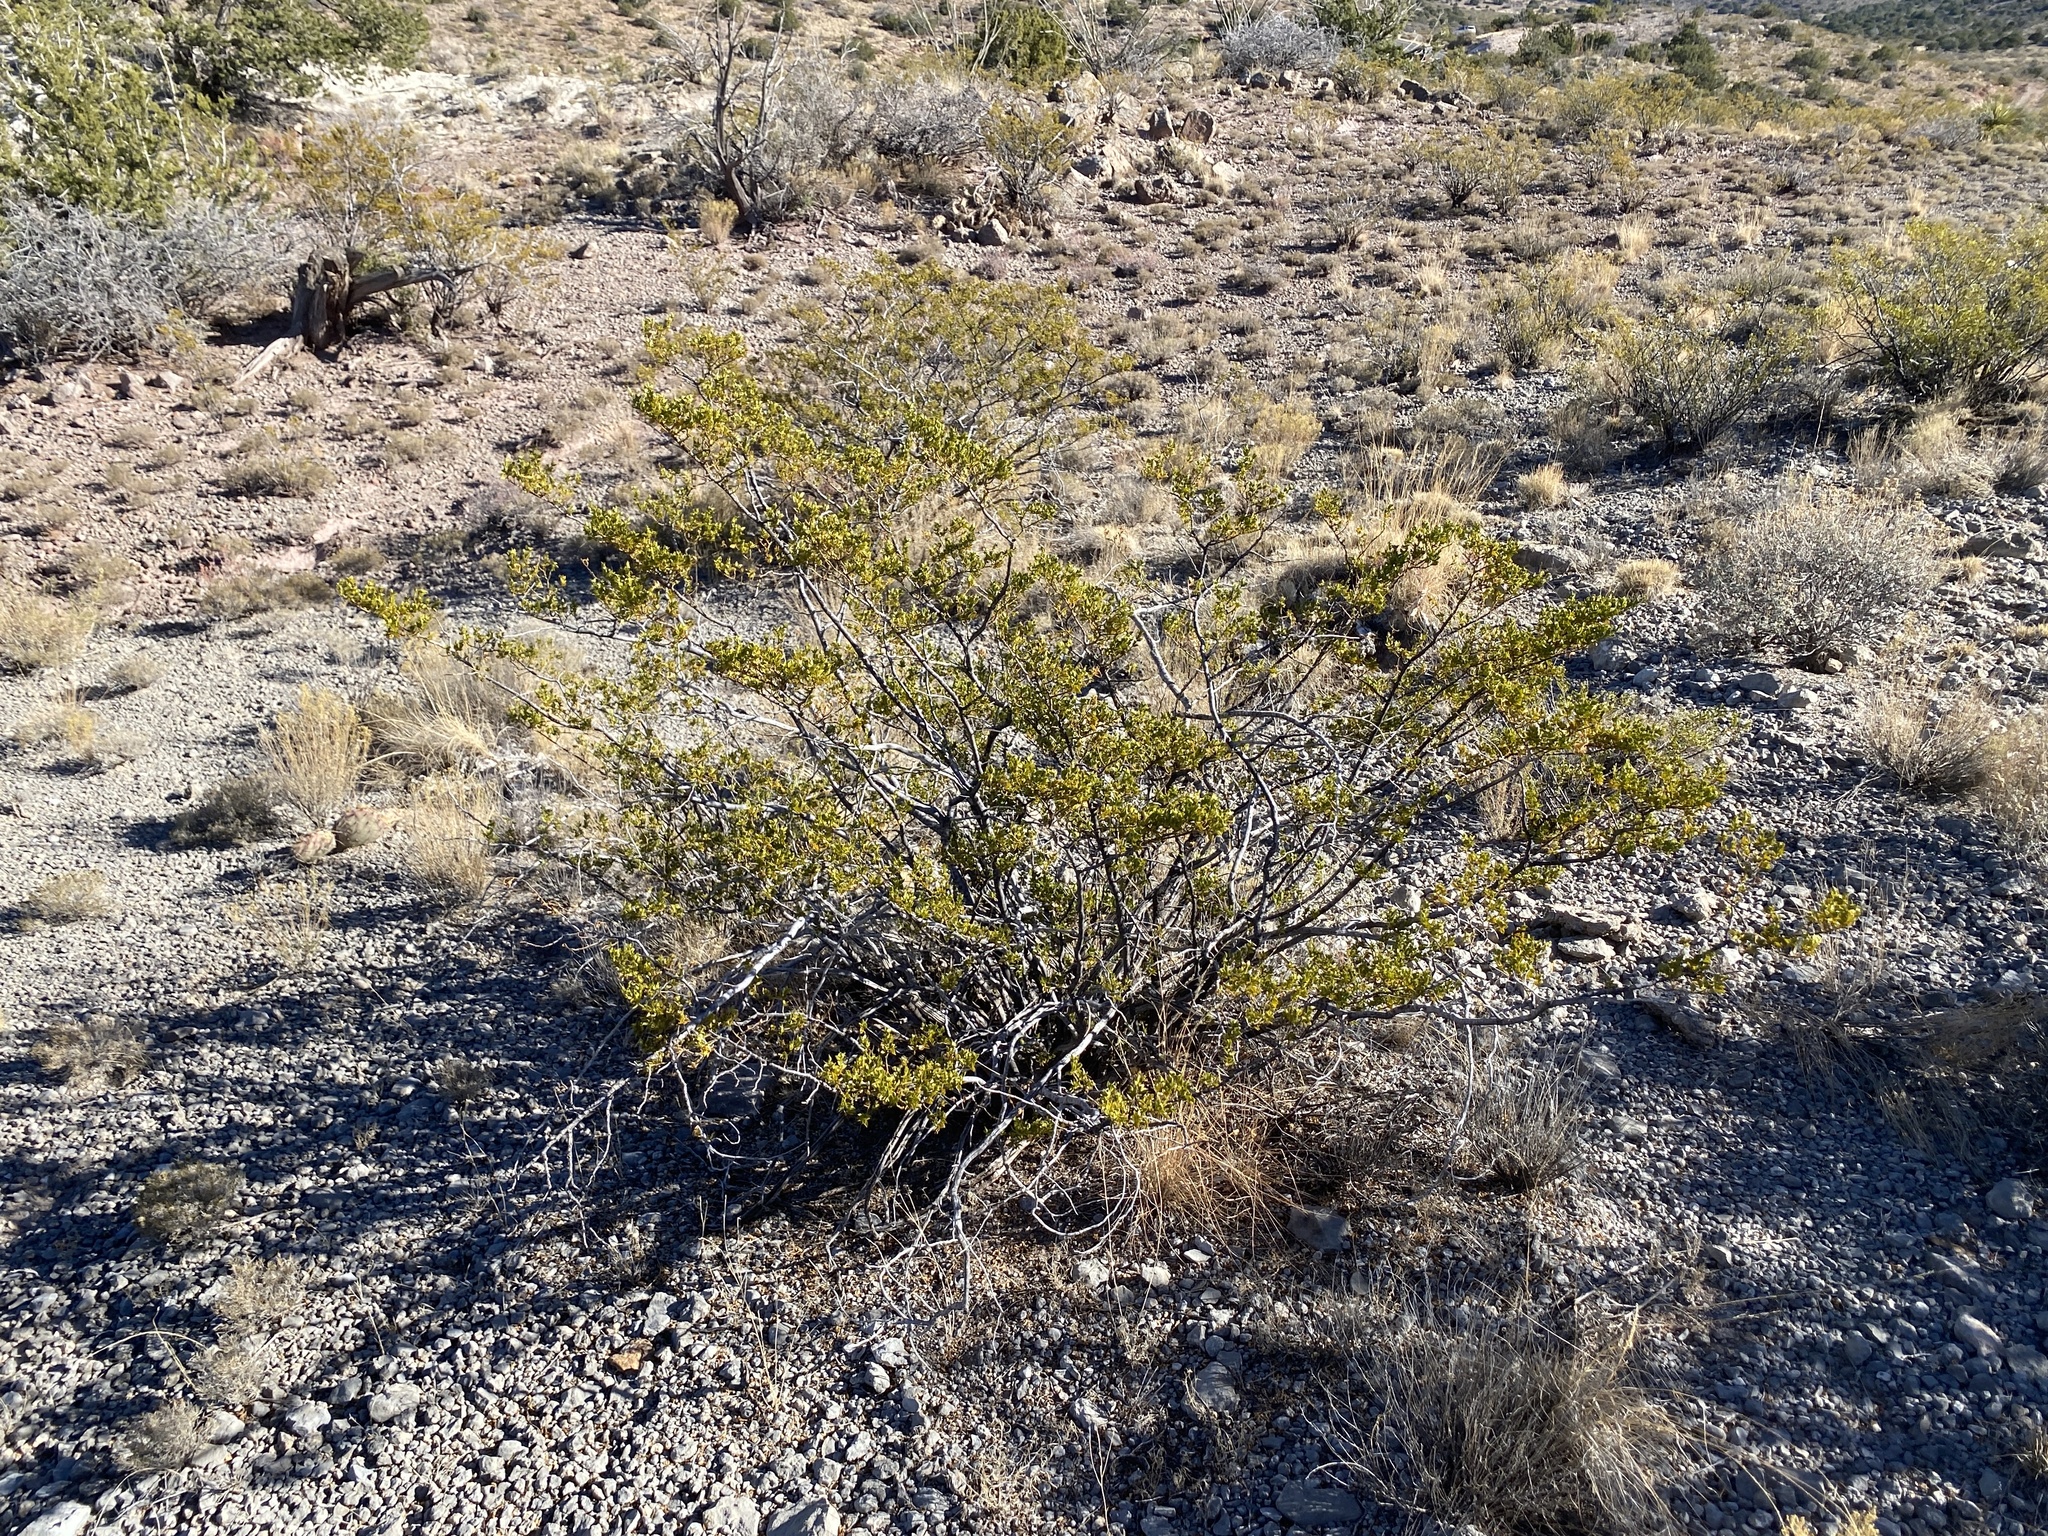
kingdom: Plantae
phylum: Tracheophyta
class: Magnoliopsida
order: Zygophyllales
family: Zygophyllaceae
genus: Larrea
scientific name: Larrea tridentata
